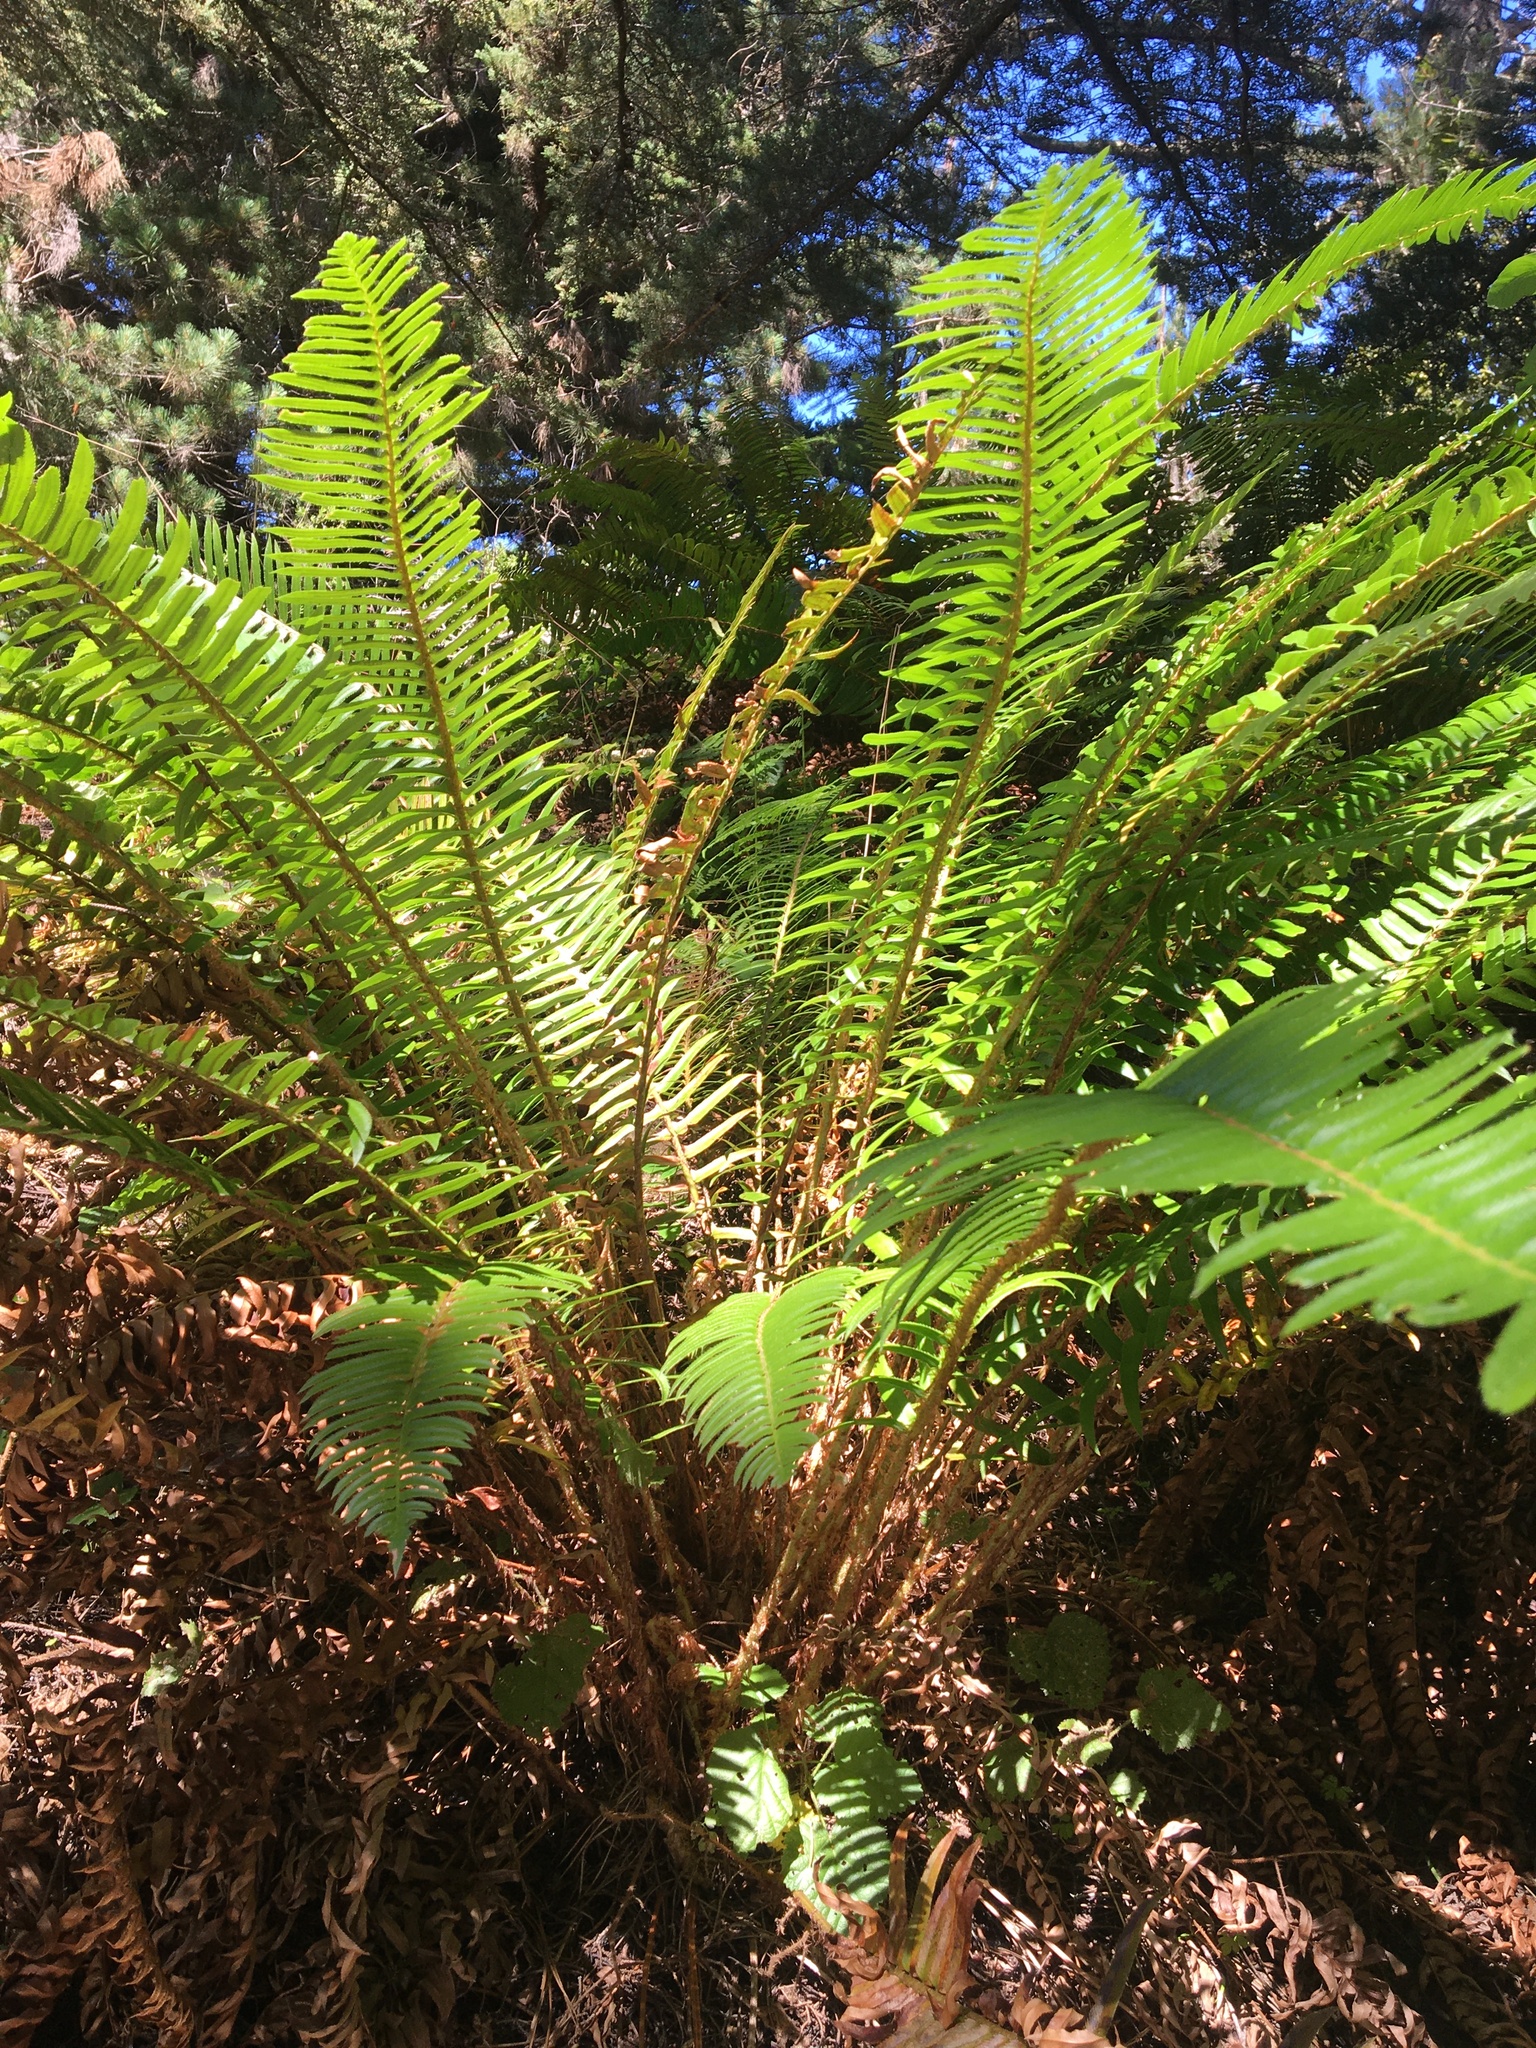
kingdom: Plantae
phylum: Tracheophyta
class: Polypodiopsida
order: Polypodiales
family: Dryopteridaceae
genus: Polystichum
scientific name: Polystichum munitum
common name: Western sword-fern
